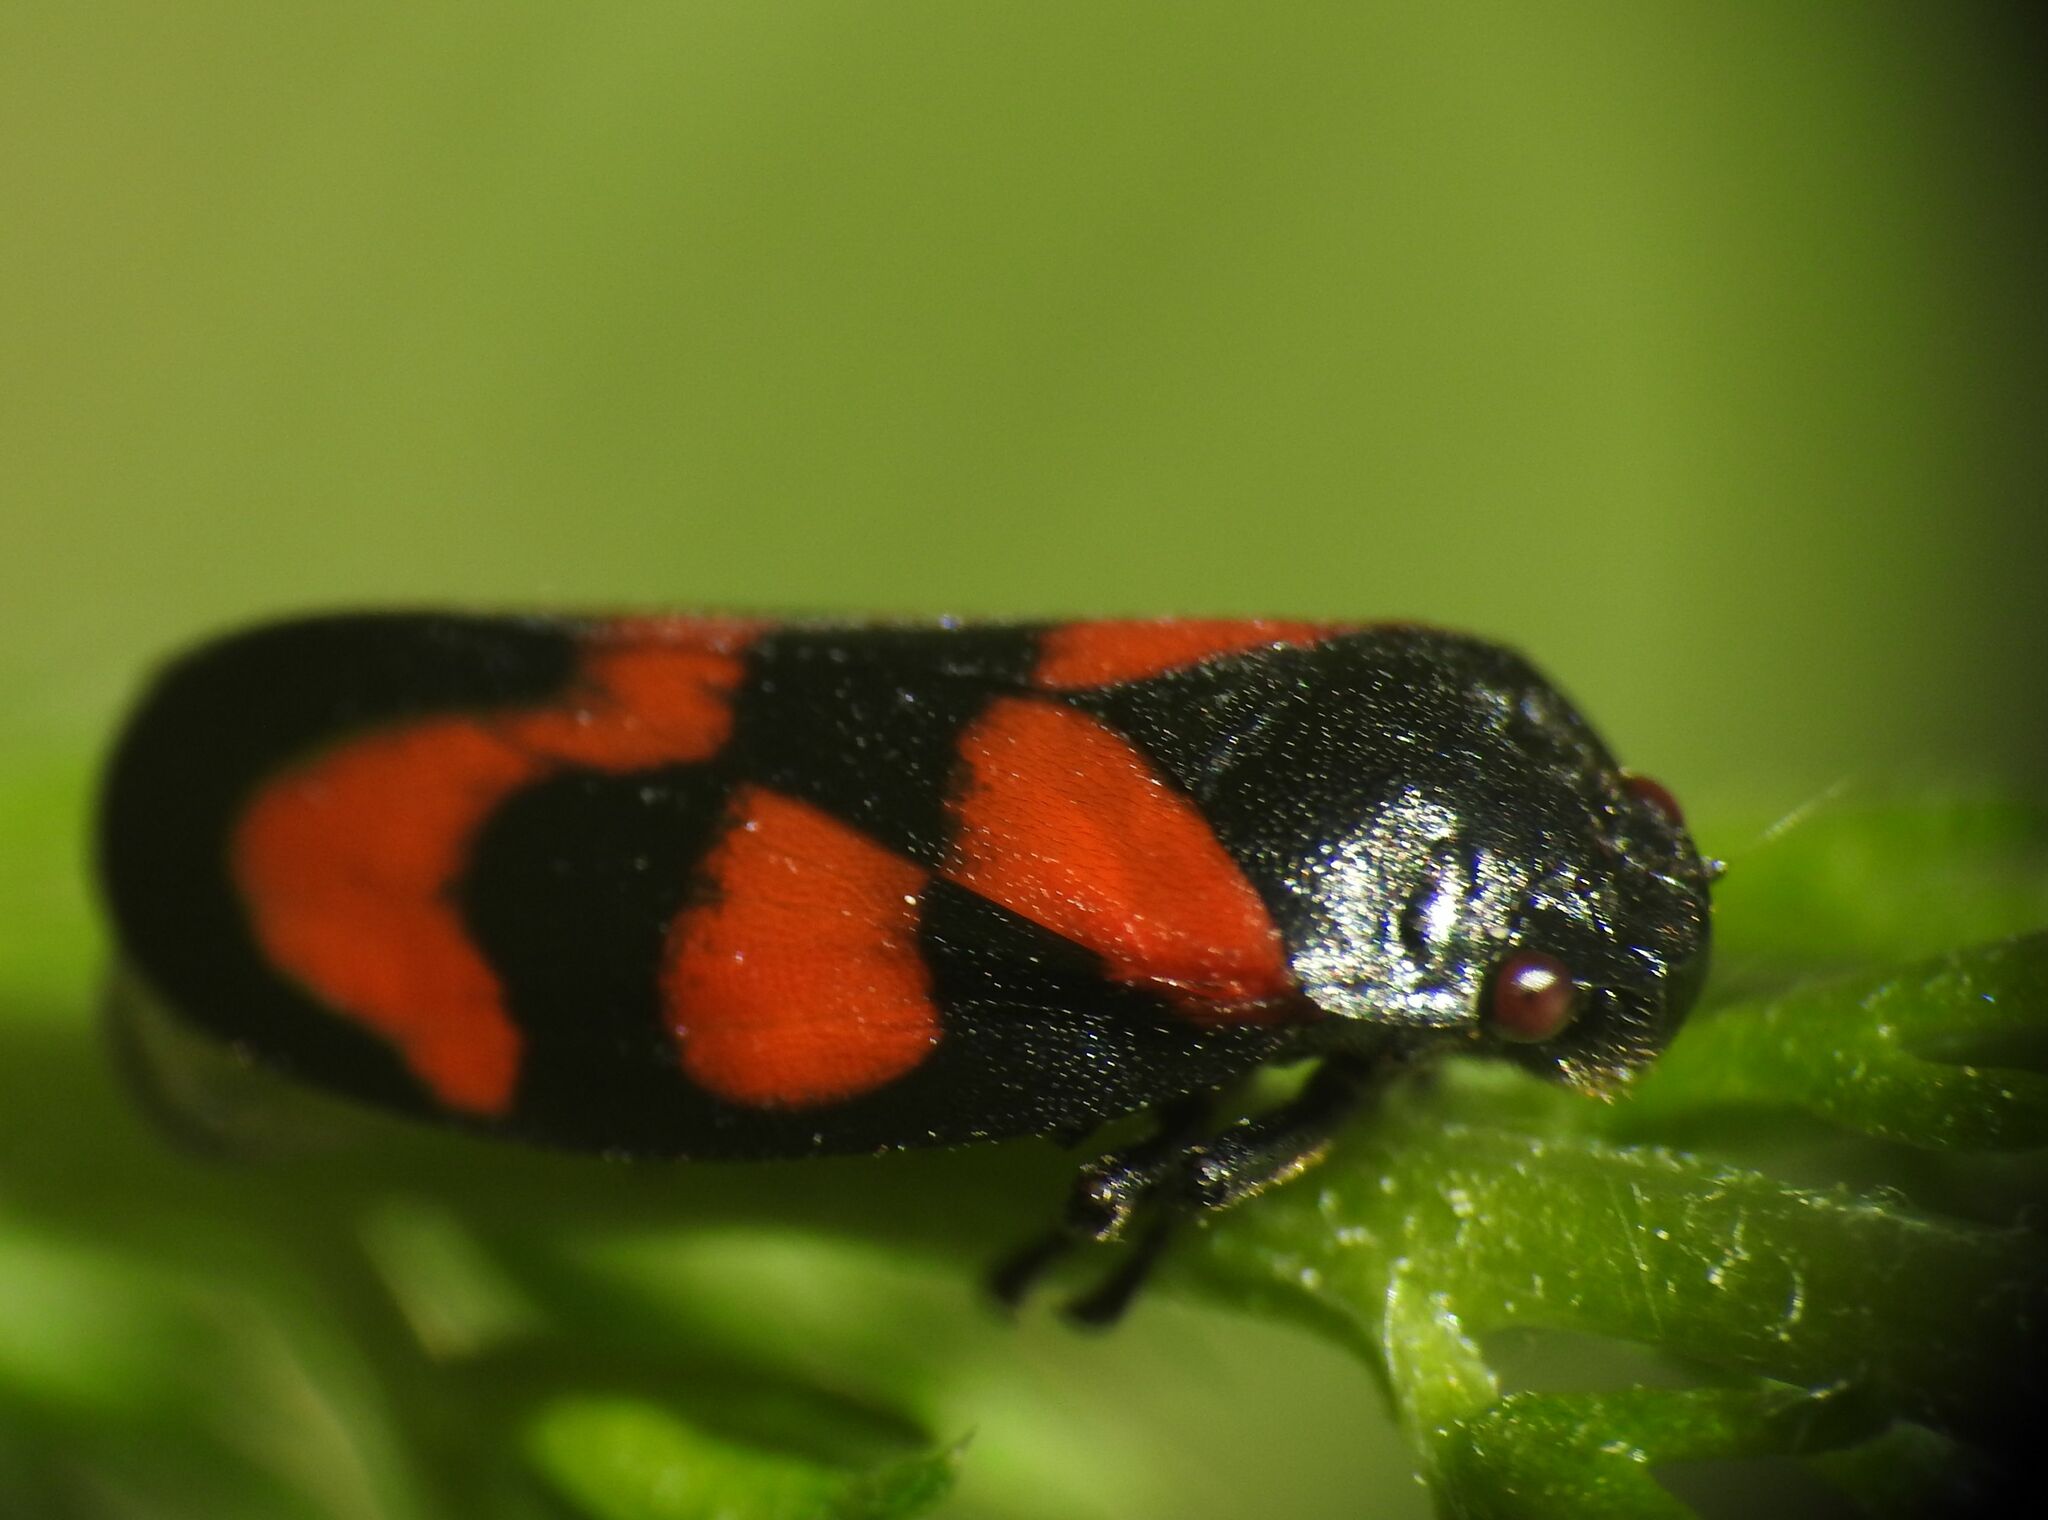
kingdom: Animalia
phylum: Arthropoda
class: Insecta
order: Hemiptera
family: Cercopidae
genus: Cercopis
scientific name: Cercopis vulnerata
